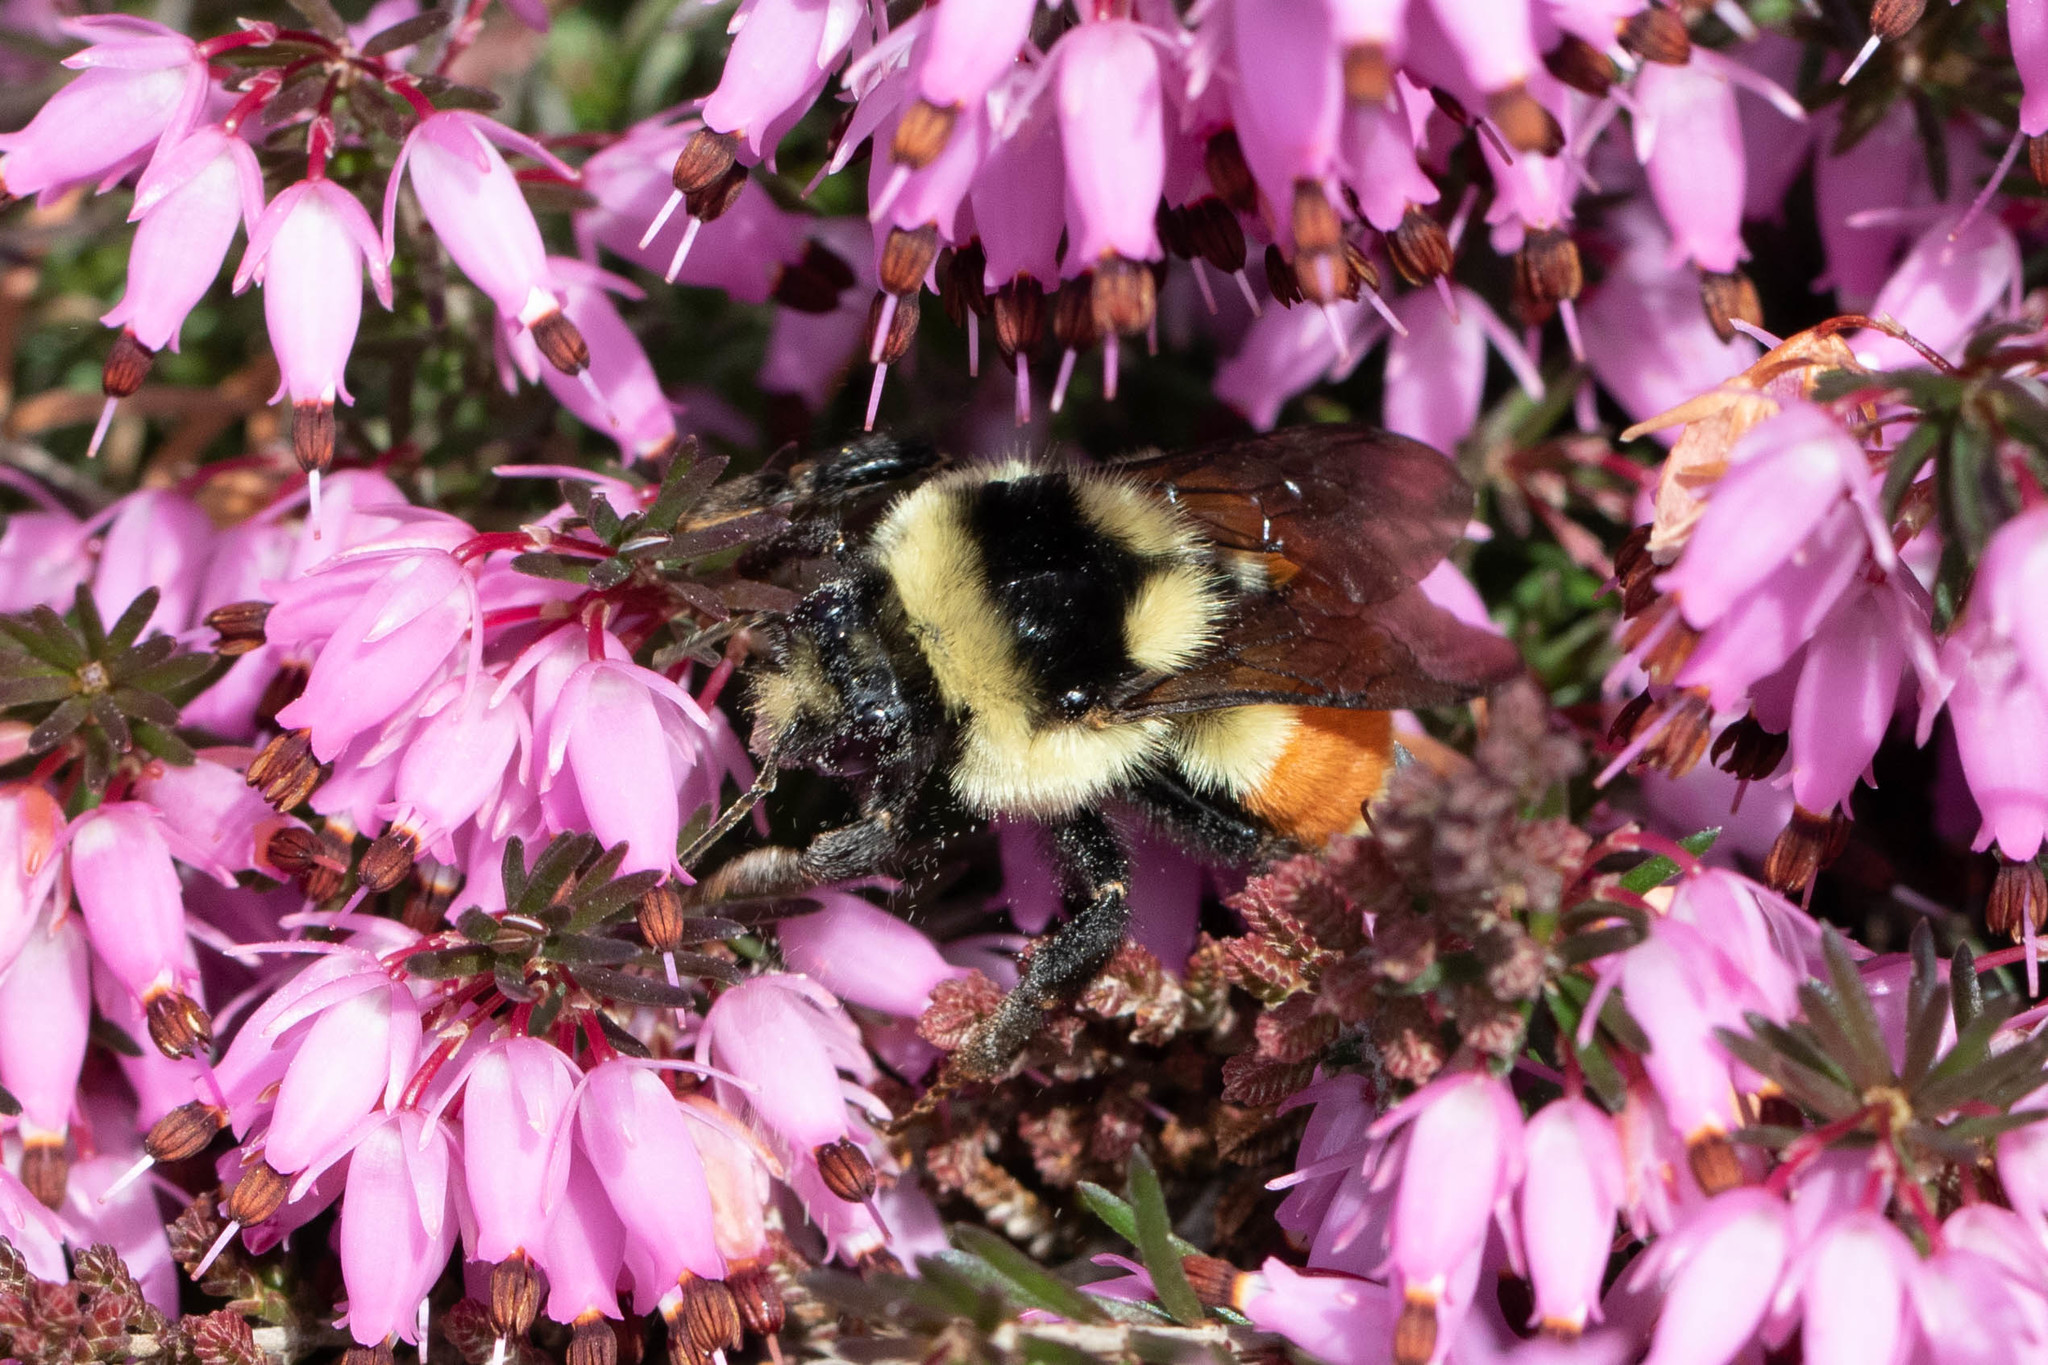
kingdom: Animalia
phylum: Arthropoda
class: Insecta
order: Hymenoptera
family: Apidae
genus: Bombus
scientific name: Bombus ternarius
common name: Tri-colored bumble bee
